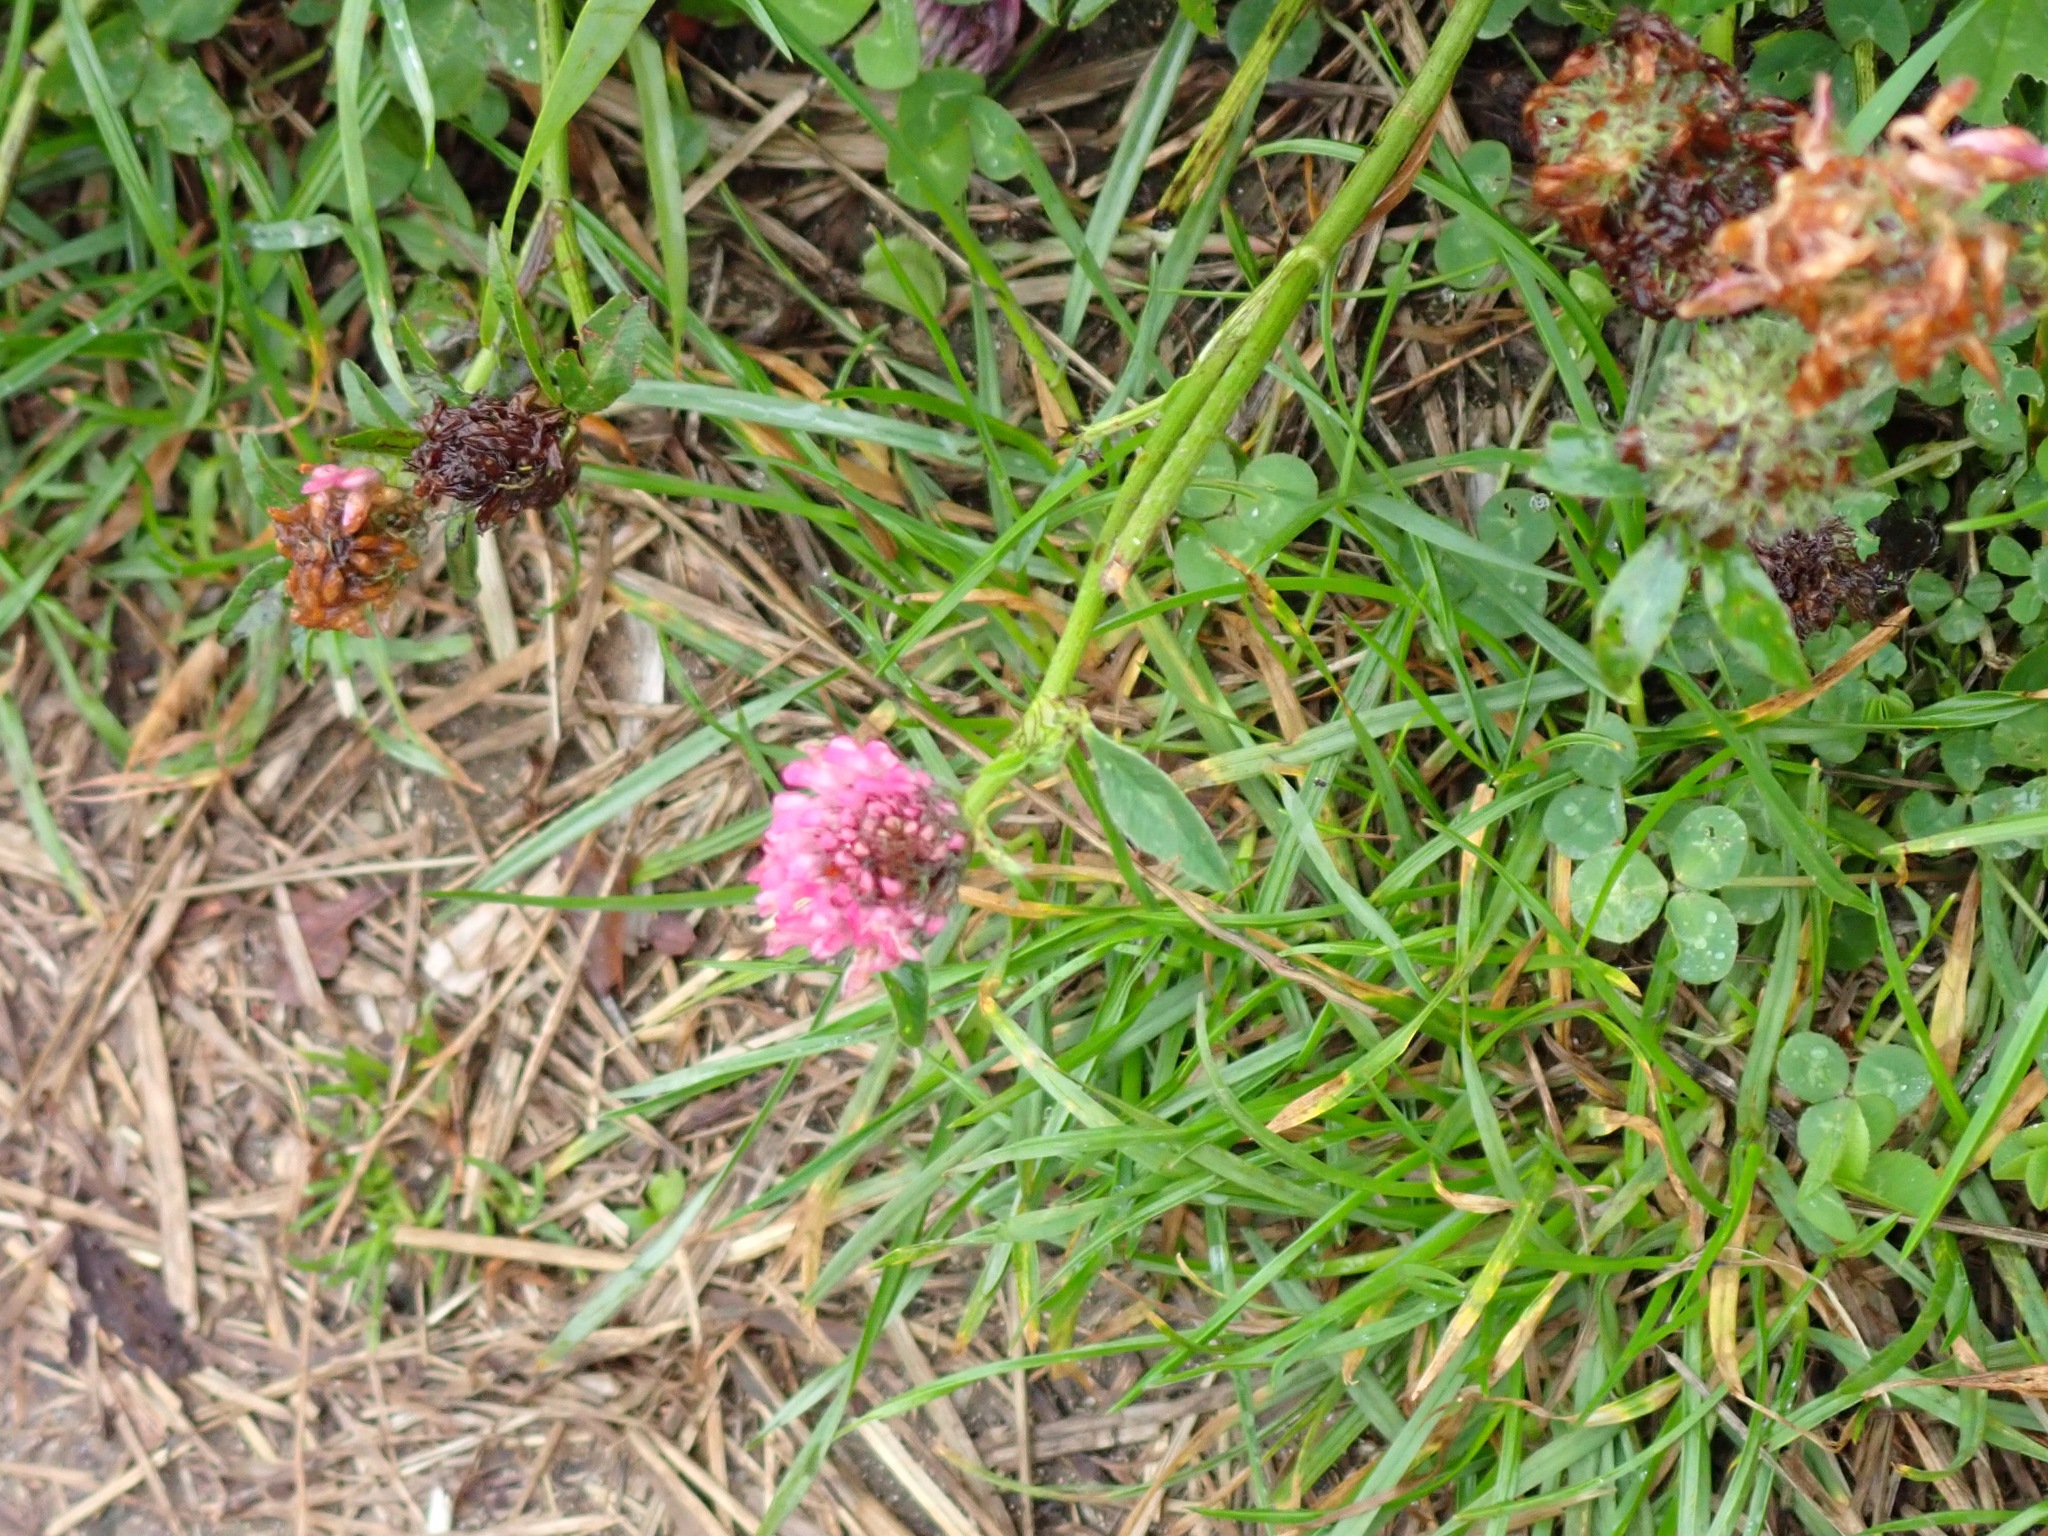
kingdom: Plantae
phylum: Tracheophyta
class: Magnoliopsida
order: Fabales
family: Fabaceae
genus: Trifolium
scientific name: Trifolium pratense
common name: Red clover
